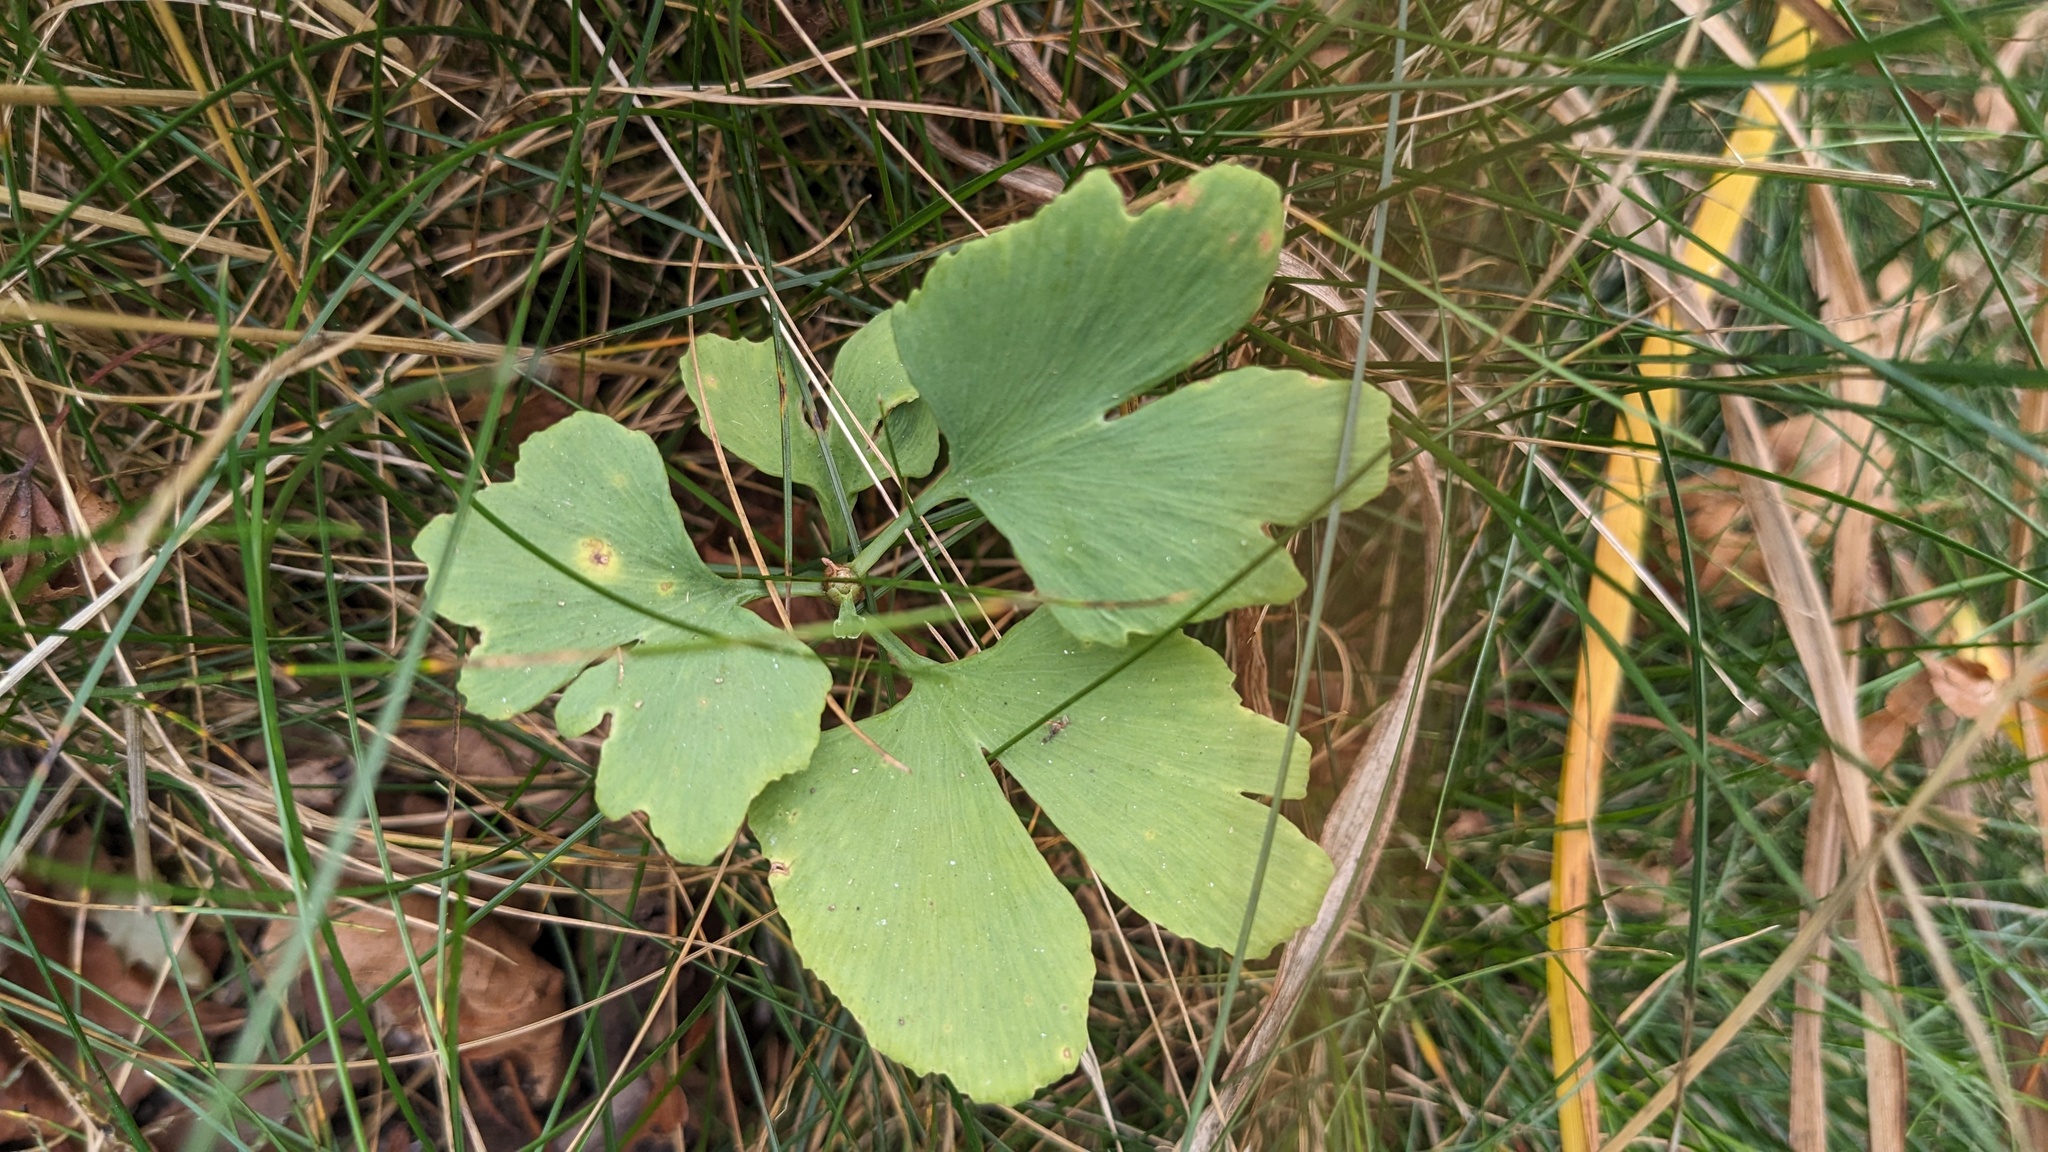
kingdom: Plantae
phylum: Tracheophyta
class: Ginkgoopsida
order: Ginkgoales
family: Ginkgoaceae
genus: Ginkgo
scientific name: Ginkgo biloba
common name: Ginkgo
